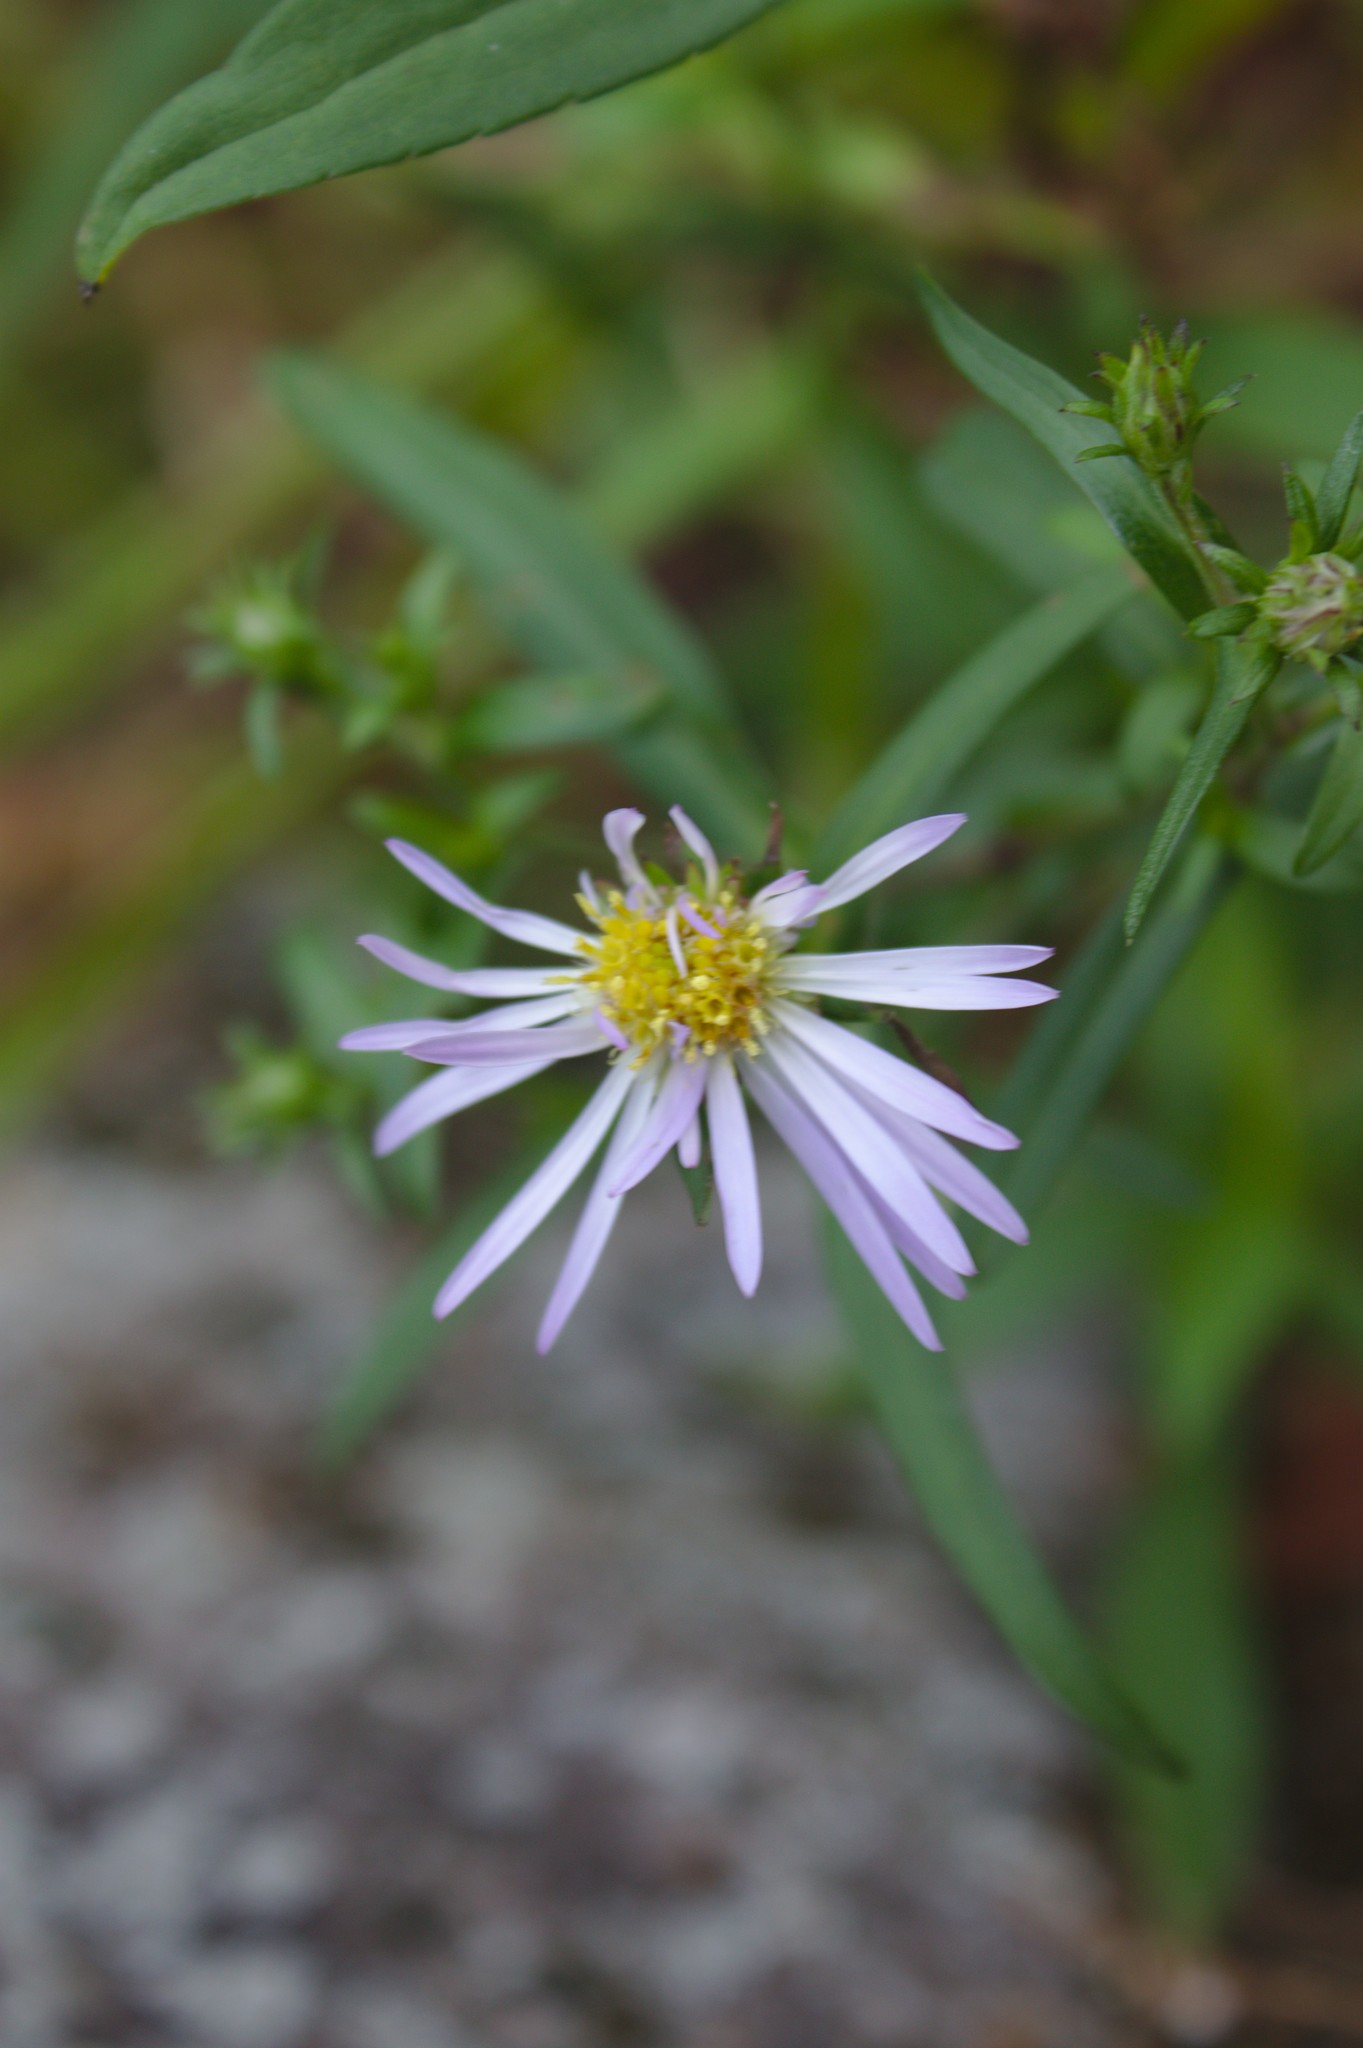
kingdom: Plantae
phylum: Tracheophyta
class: Magnoliopsida
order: Asterales
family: Asteraceae
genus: Symphyotrichum
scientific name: Symphyotrichum novi-belgii
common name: Michaelmas daisy
